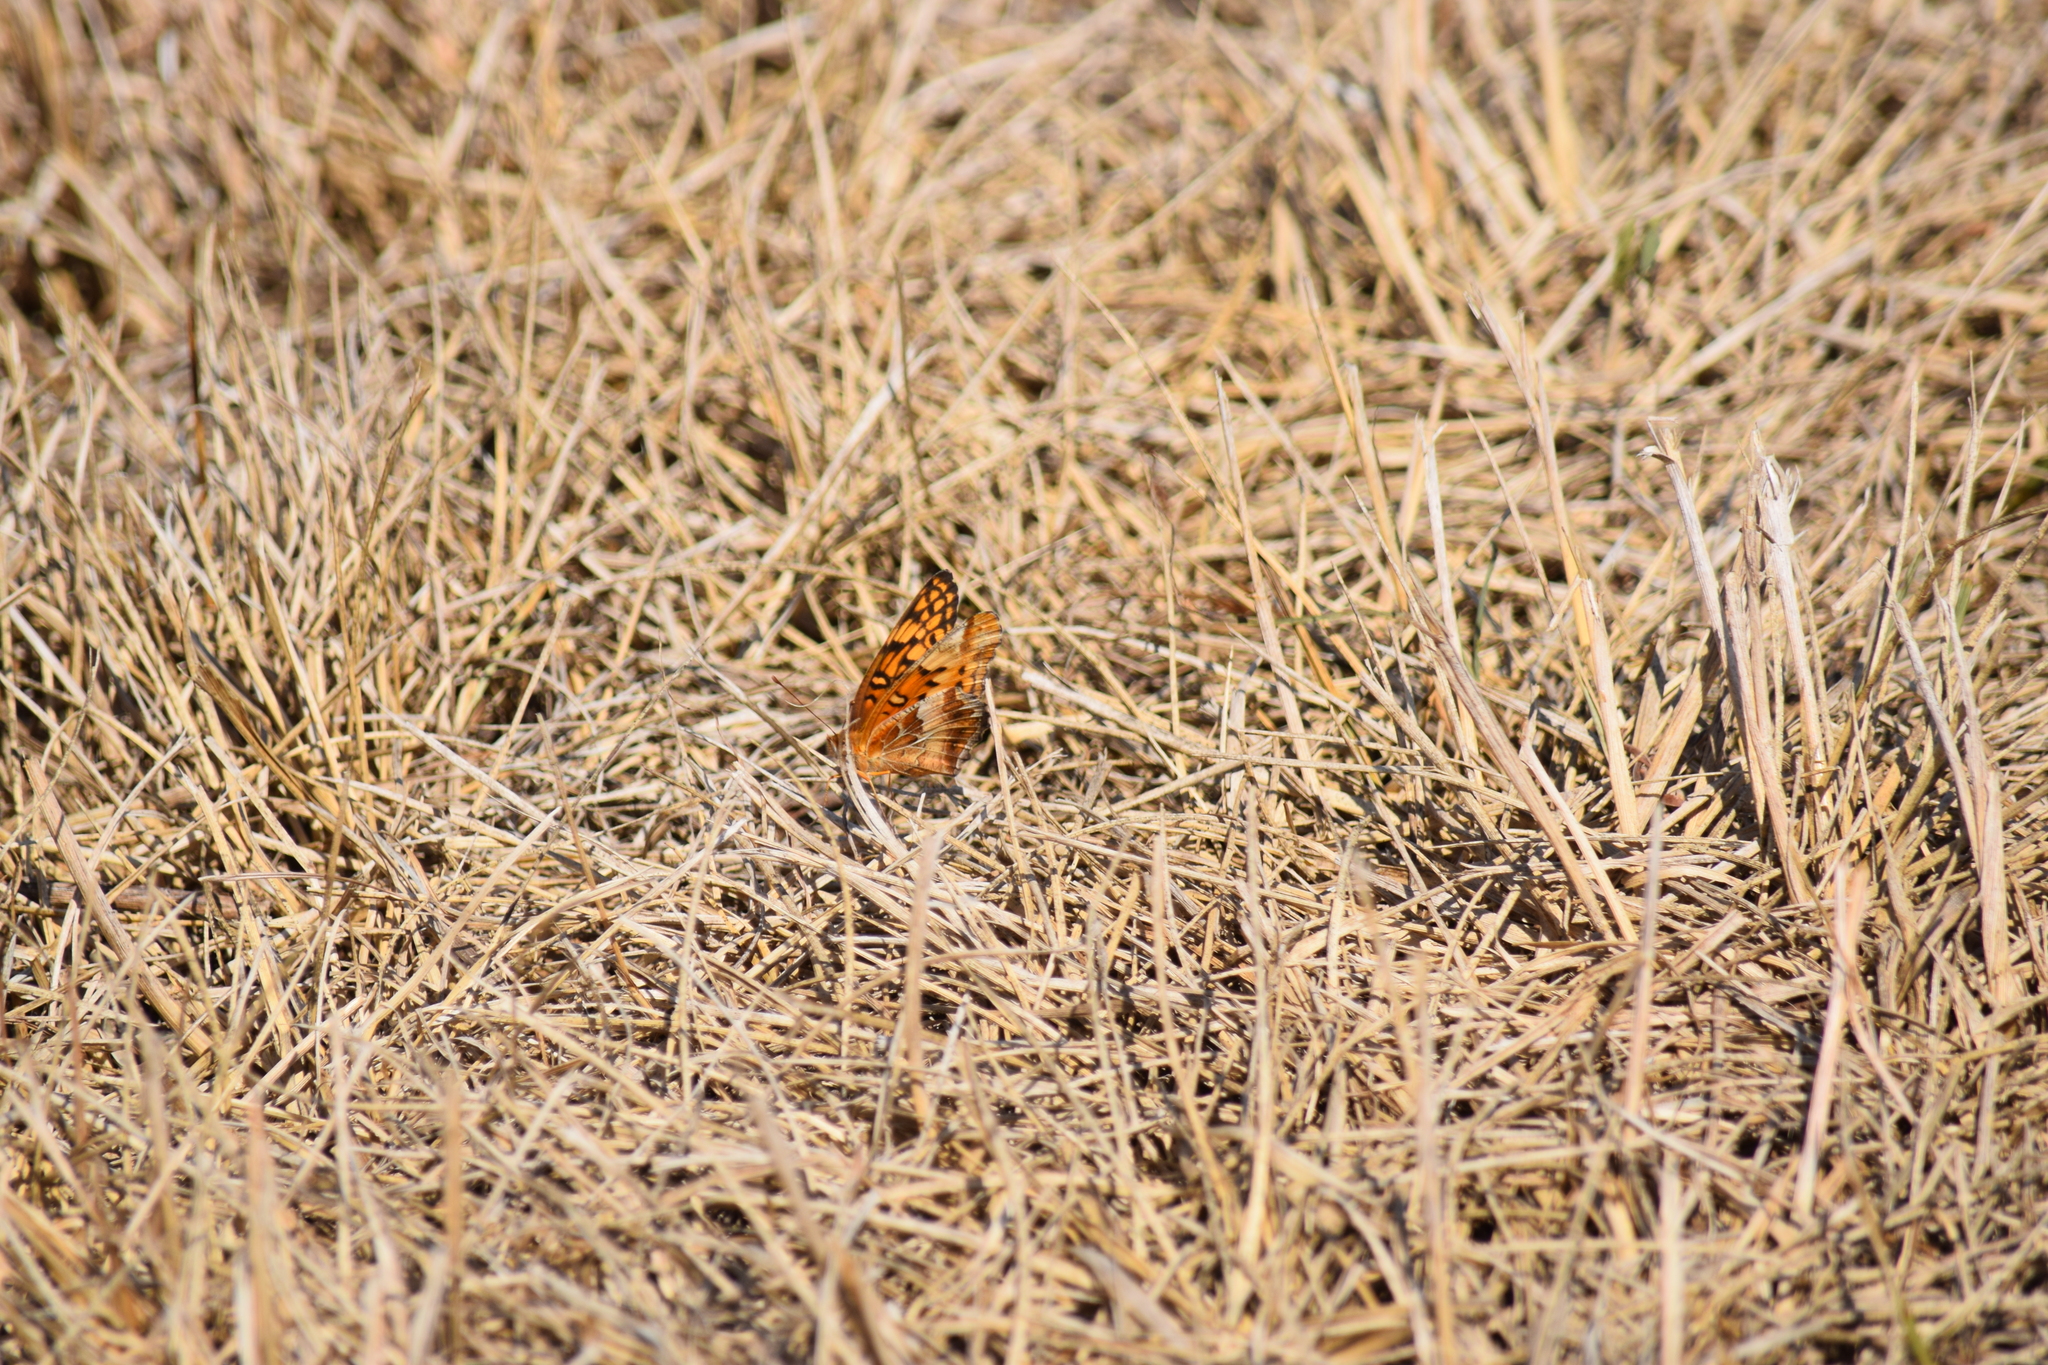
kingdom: Animalia
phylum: Arthropoda
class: Insecta
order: Lepidoptera
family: Nymphalidae
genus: Euptoieta
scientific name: Euptoieta claudia
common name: Variegated fritillary
